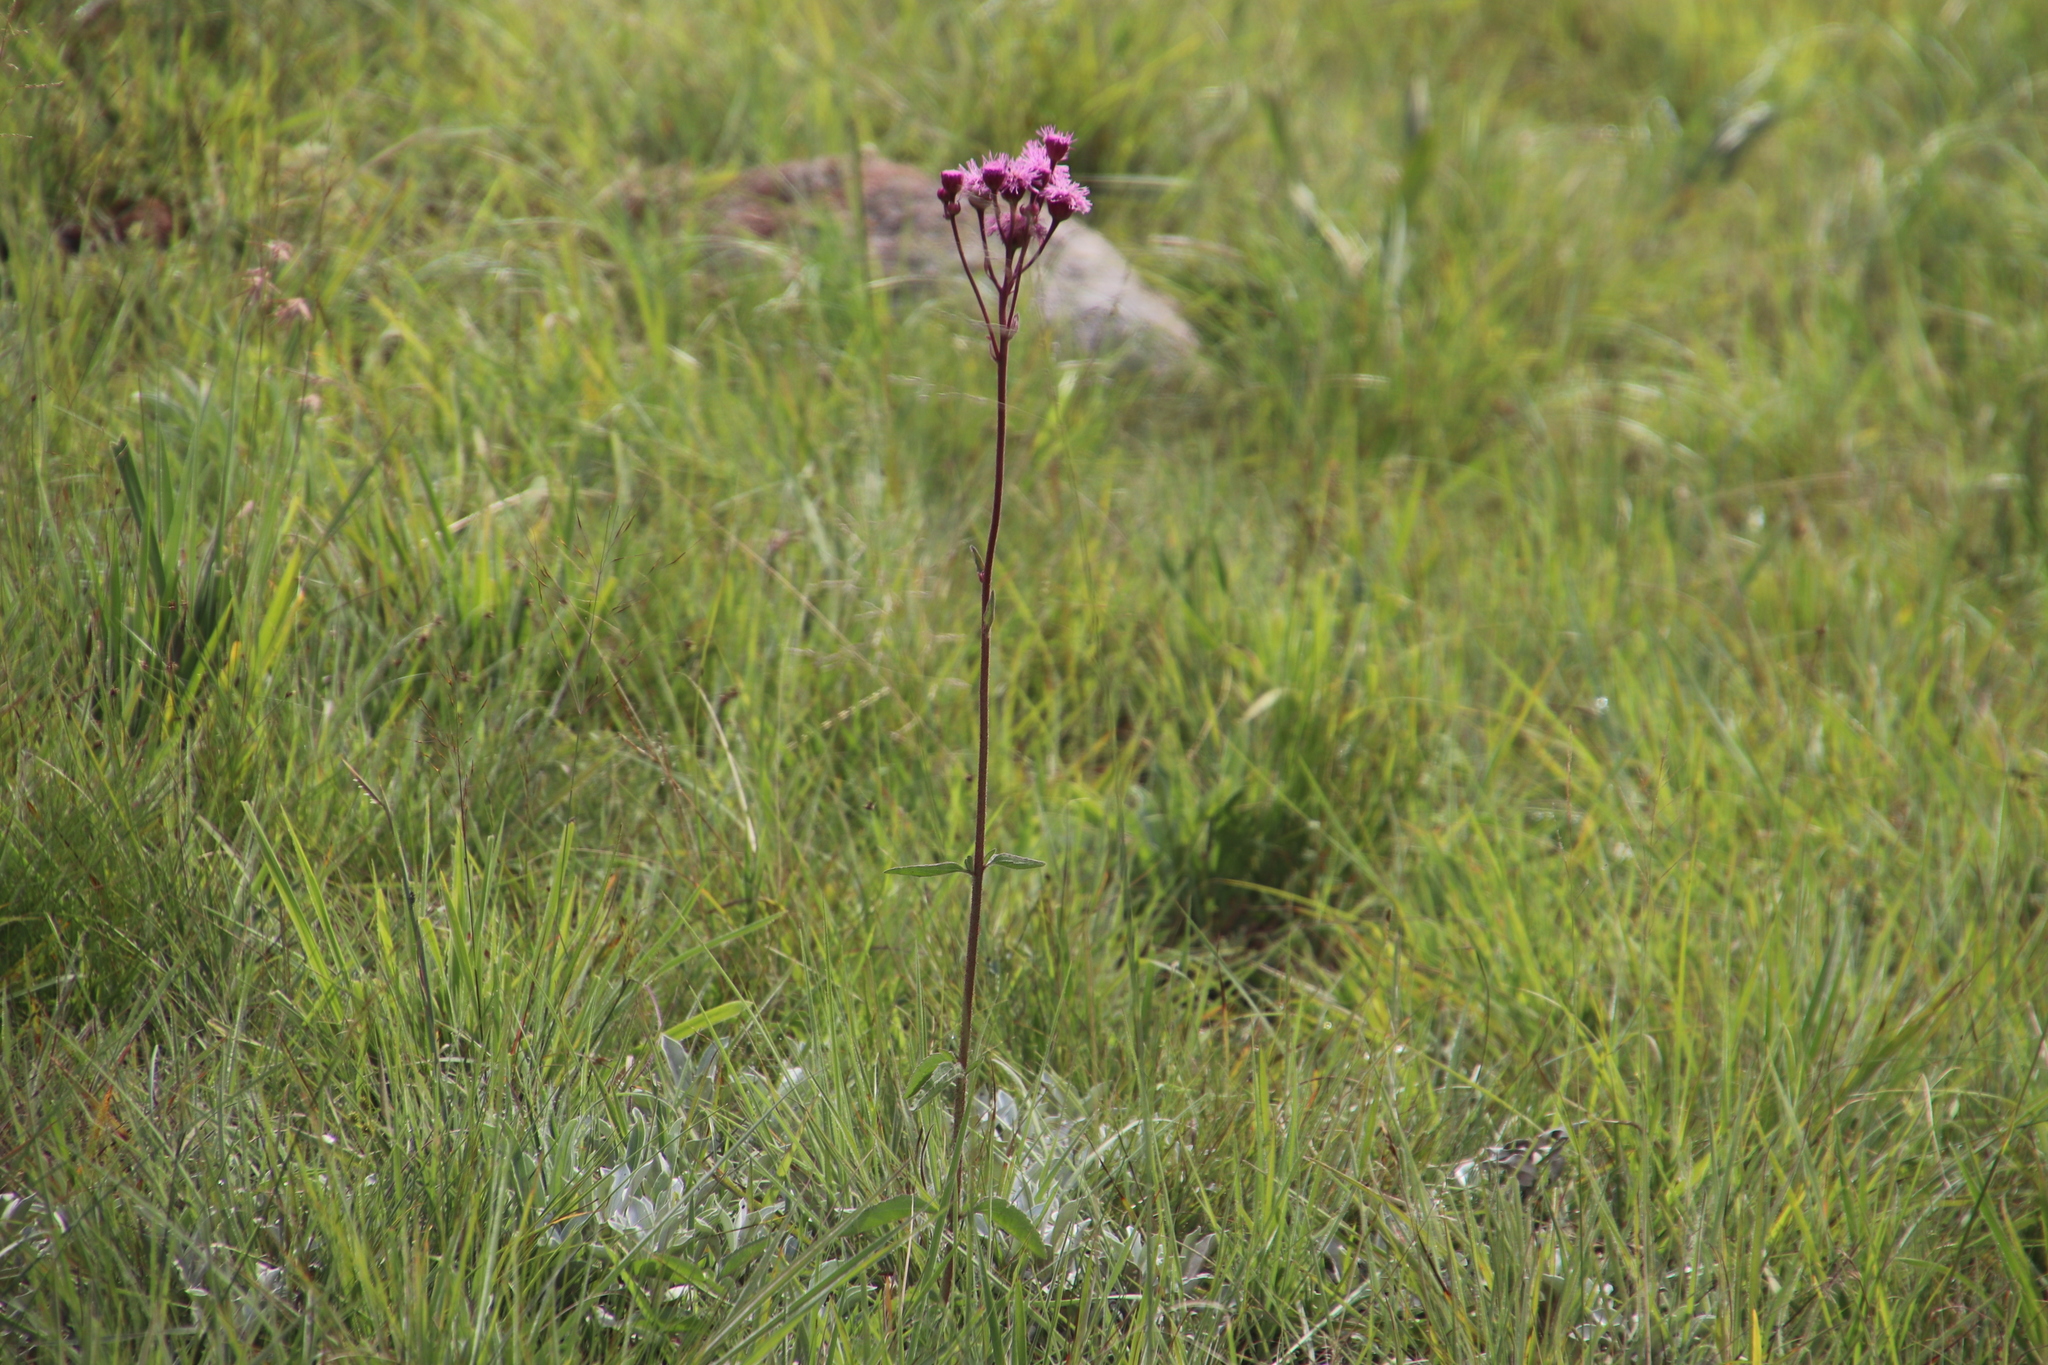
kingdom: Plantae
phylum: Tracheophyta
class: Magnoliopsida
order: Asterales
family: Asteraceae
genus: Campuloclinium
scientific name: Campuloclinium macrocephalum
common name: Pompomweed
